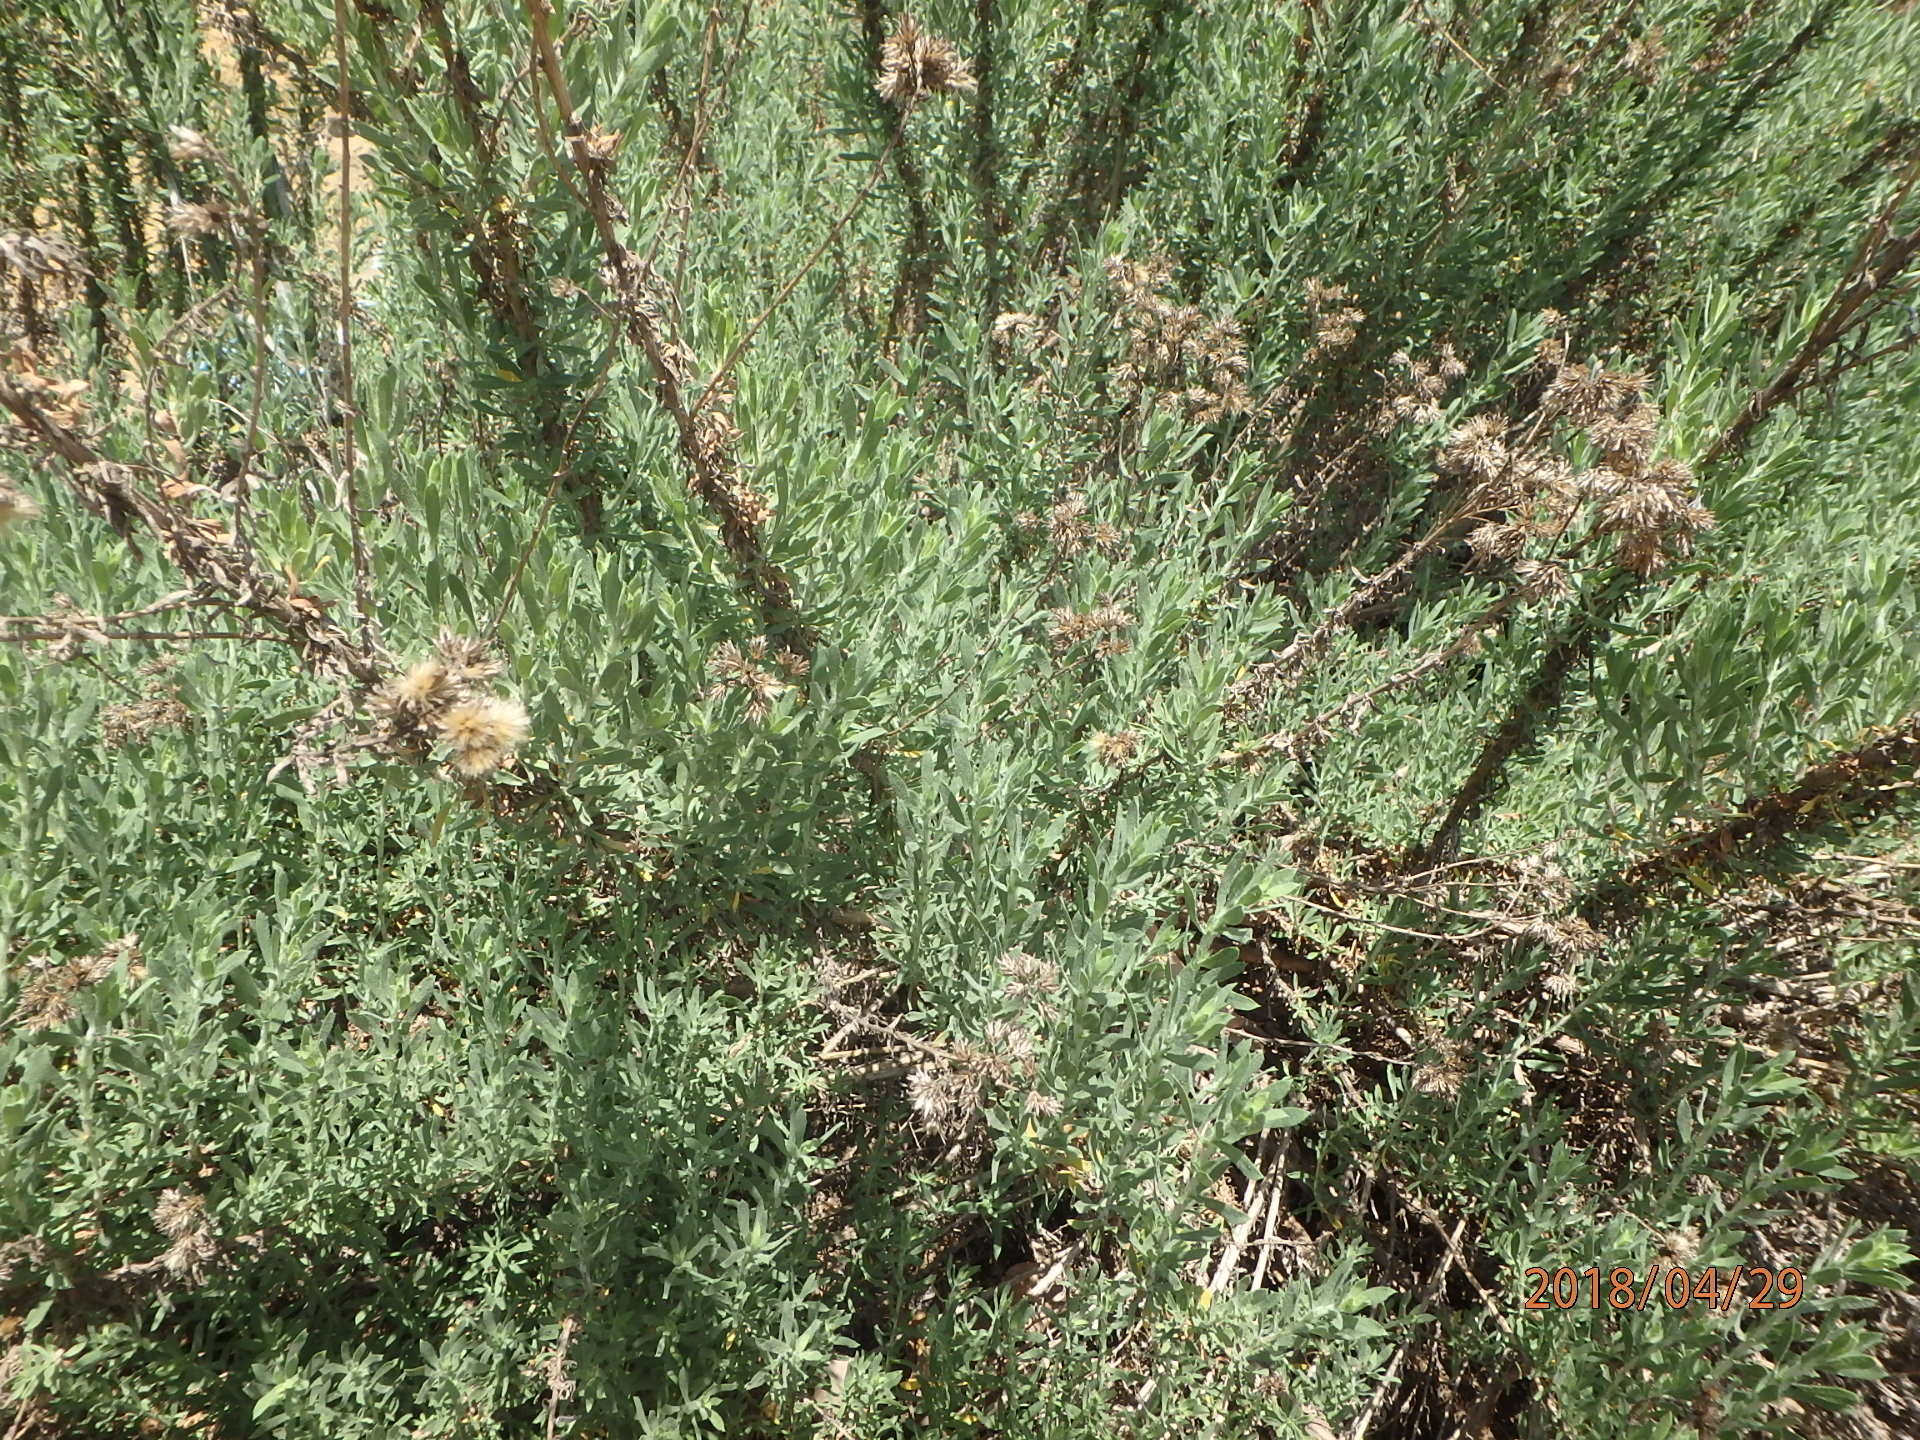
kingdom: Plantae
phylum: Tracheophyta
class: Magnoliopsida
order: Asterales
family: Asteraceae
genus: Isocoma
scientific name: Isocoma menziesii
